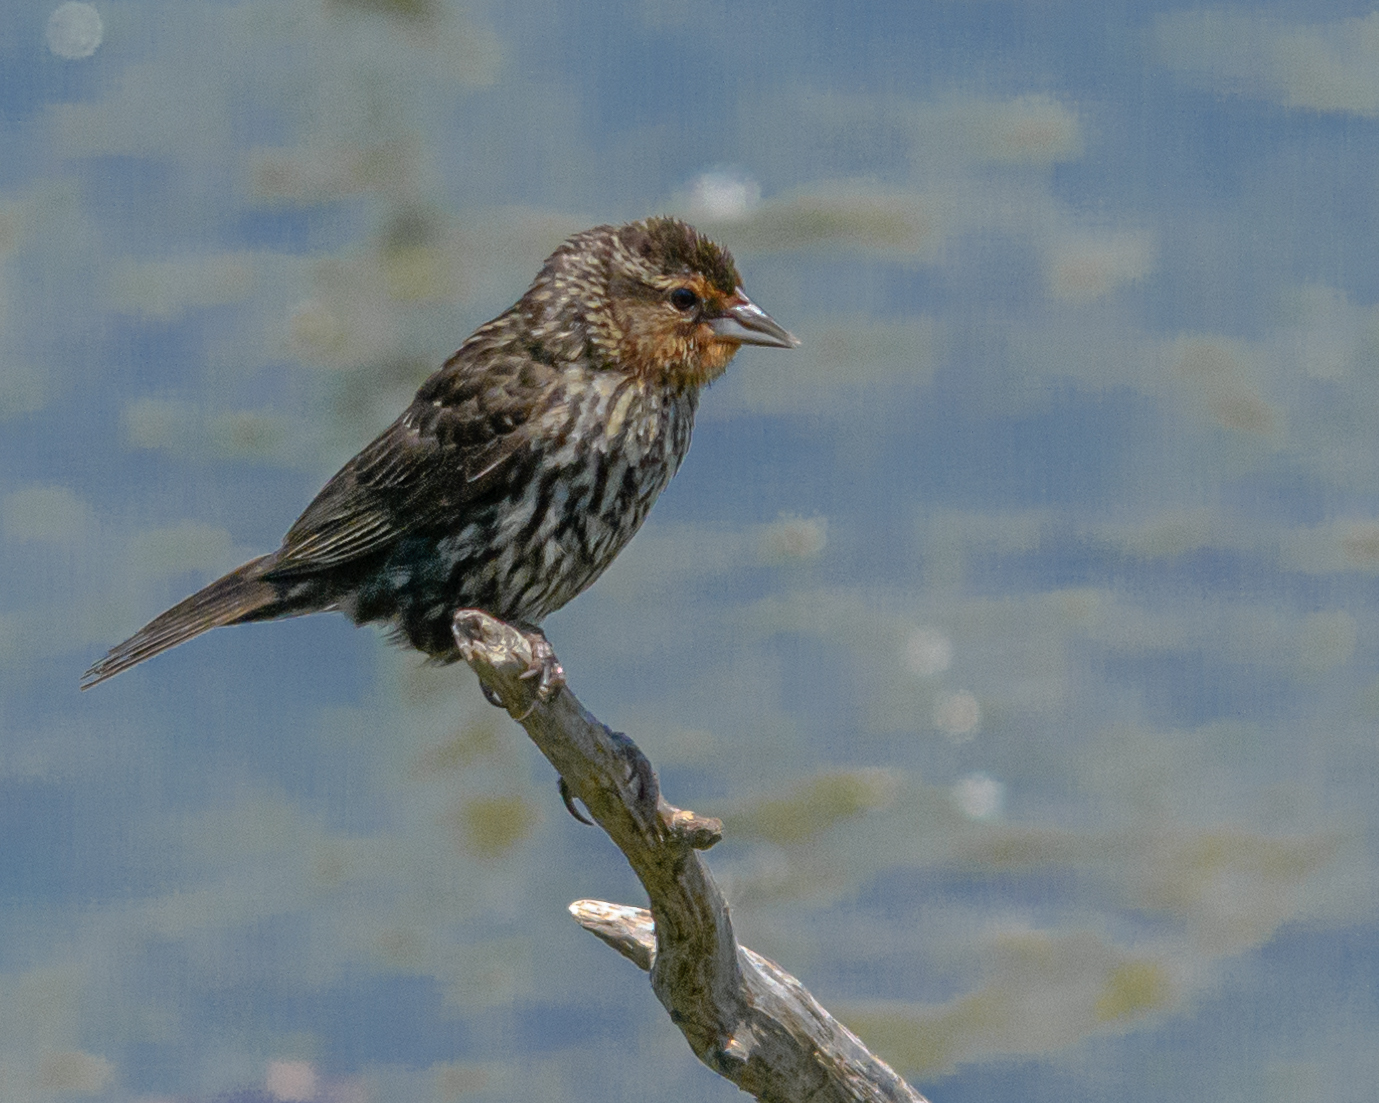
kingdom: Animalia
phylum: Chordata
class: Aves
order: Passeriformes
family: Icteridae
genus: Agelaius
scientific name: Agelaius phoeniceus
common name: Red-winged blackbird
